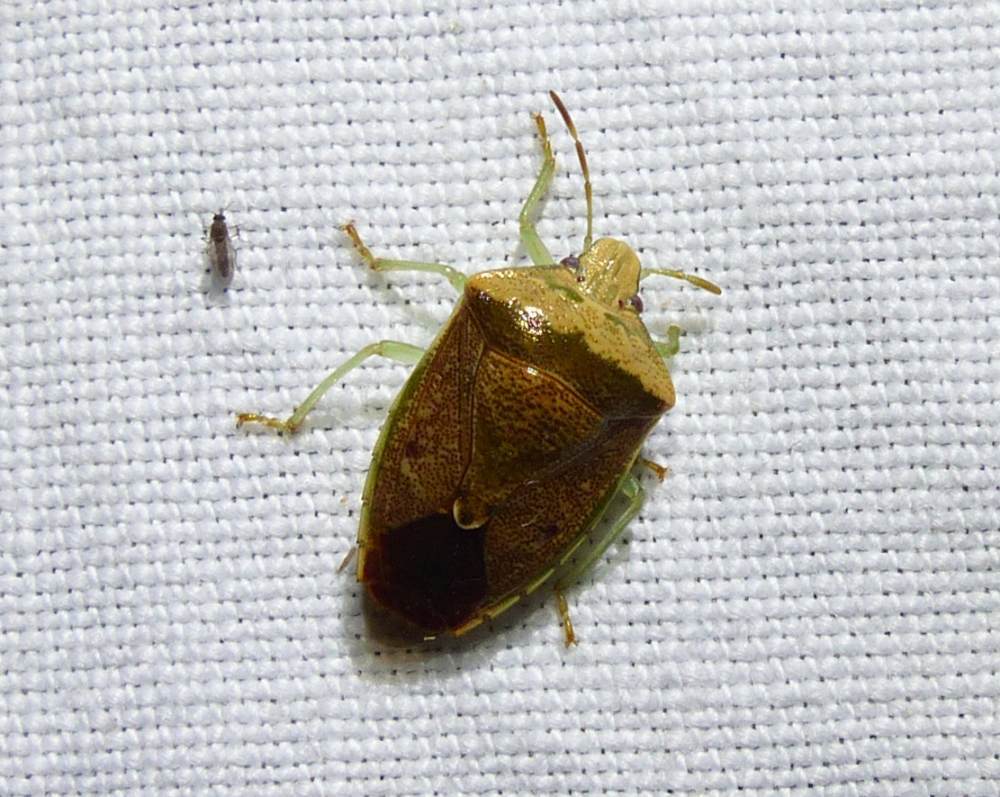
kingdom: Animalia
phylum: Arthropoda
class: Insecta
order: Hemiptera
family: Pentatomidae
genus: Banasa
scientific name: Banasa calva
